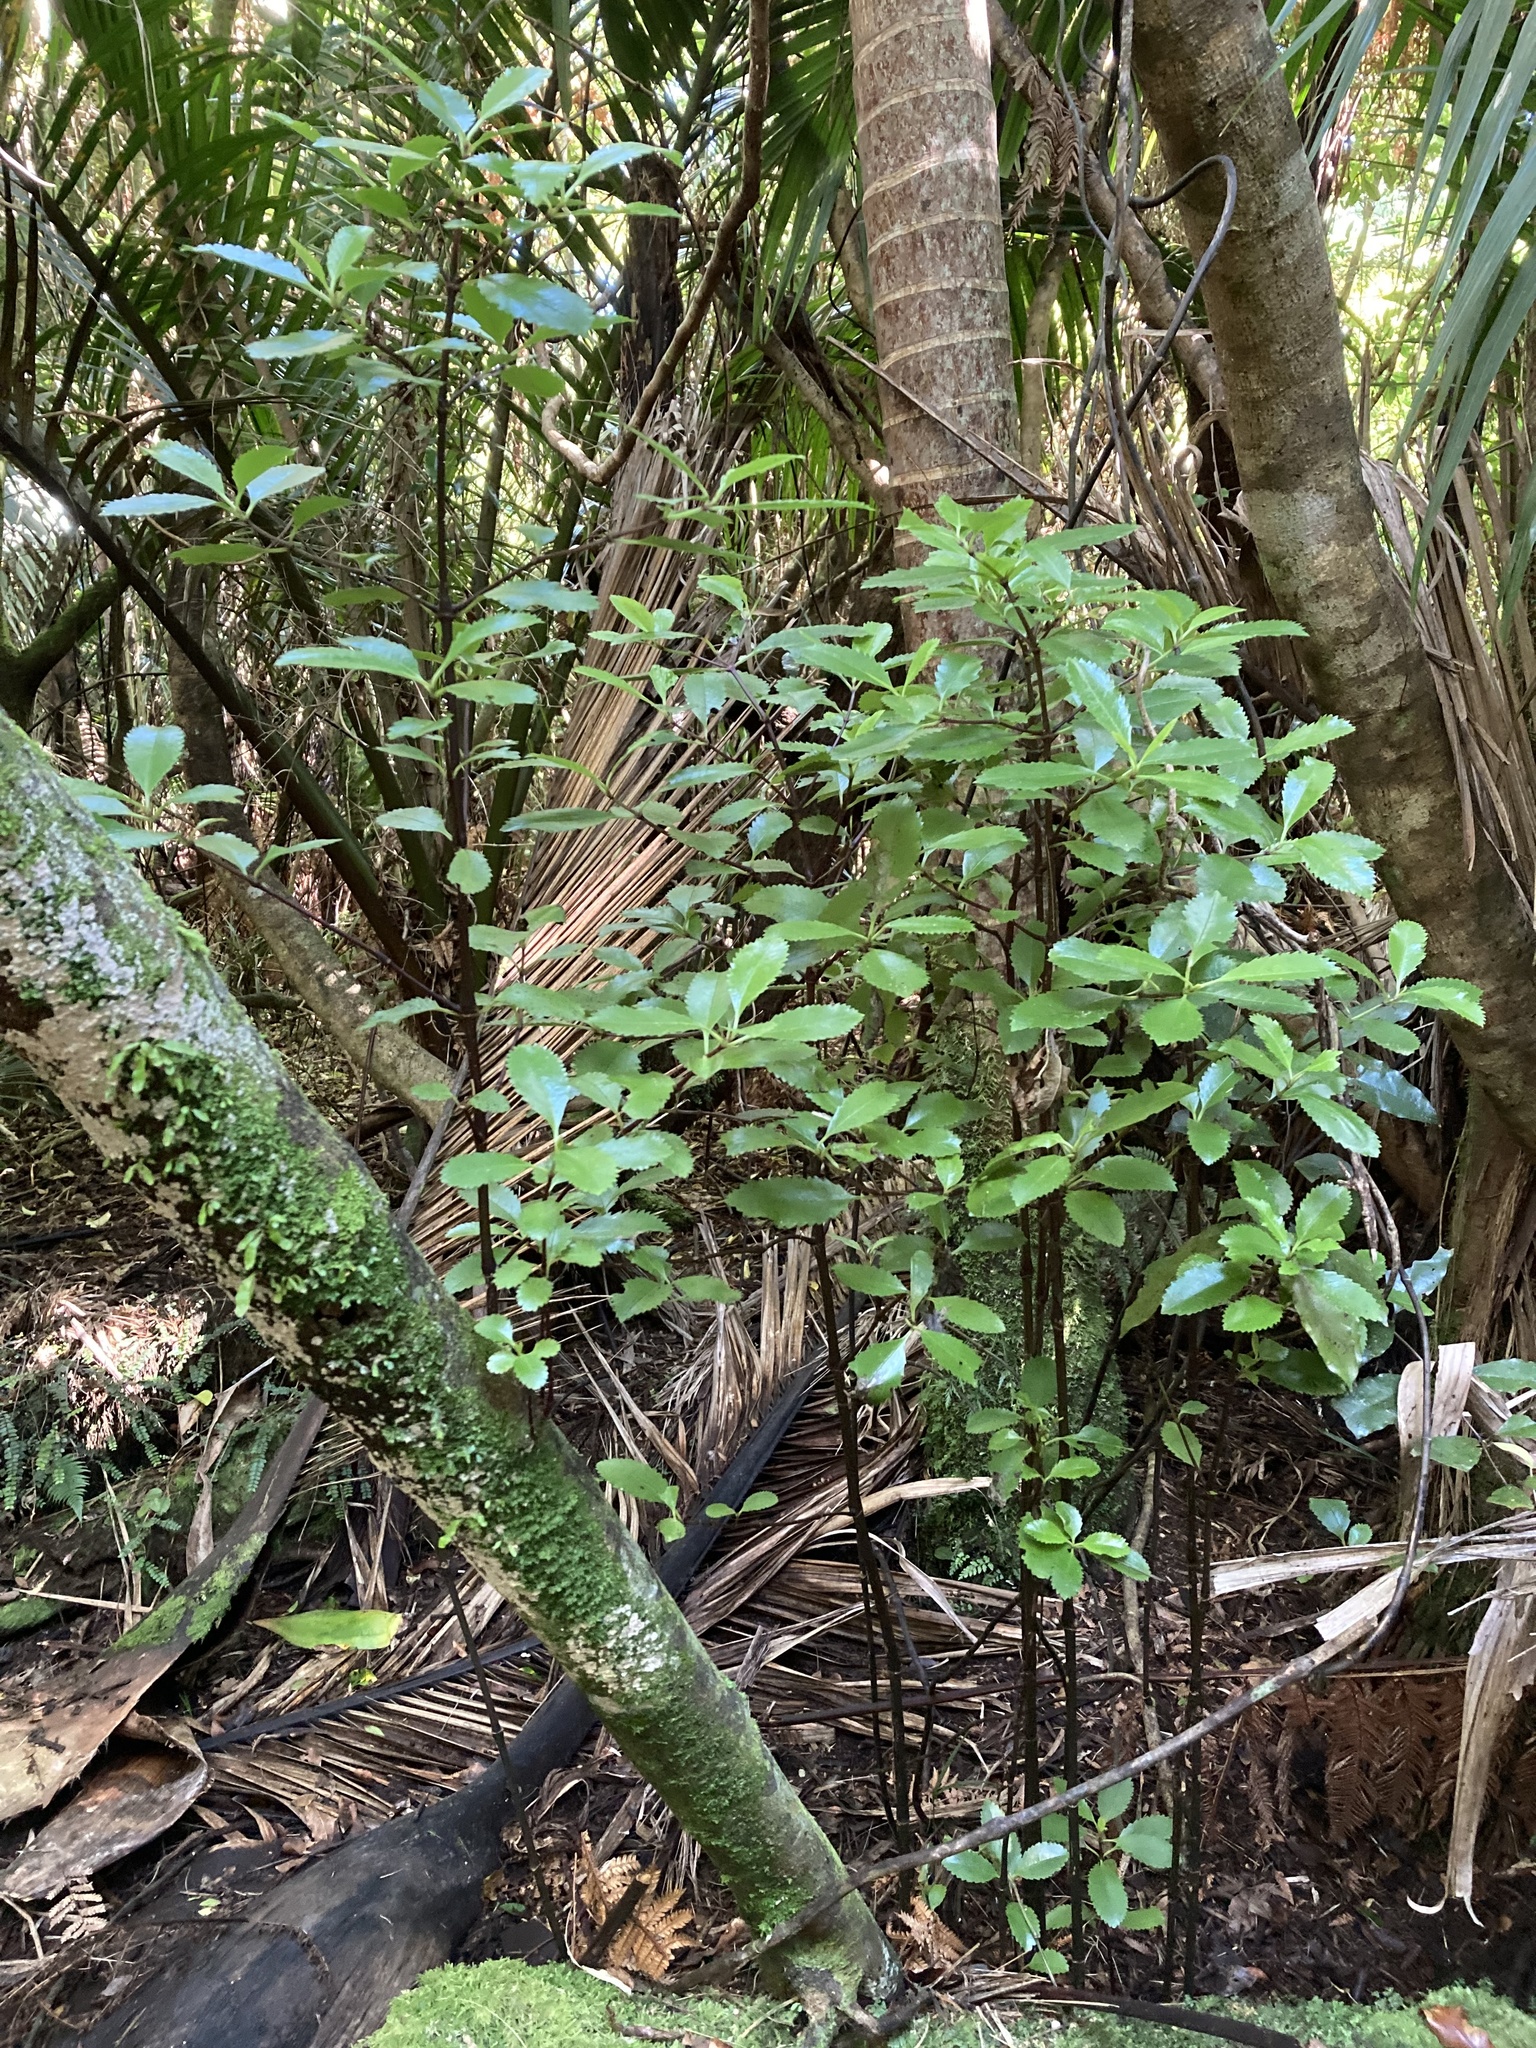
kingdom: Plantae
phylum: Tracheophyta
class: Magnoliopsida
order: Chloranthales
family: Chloranthaceae
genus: Ascarina
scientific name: Ascarina lucida
